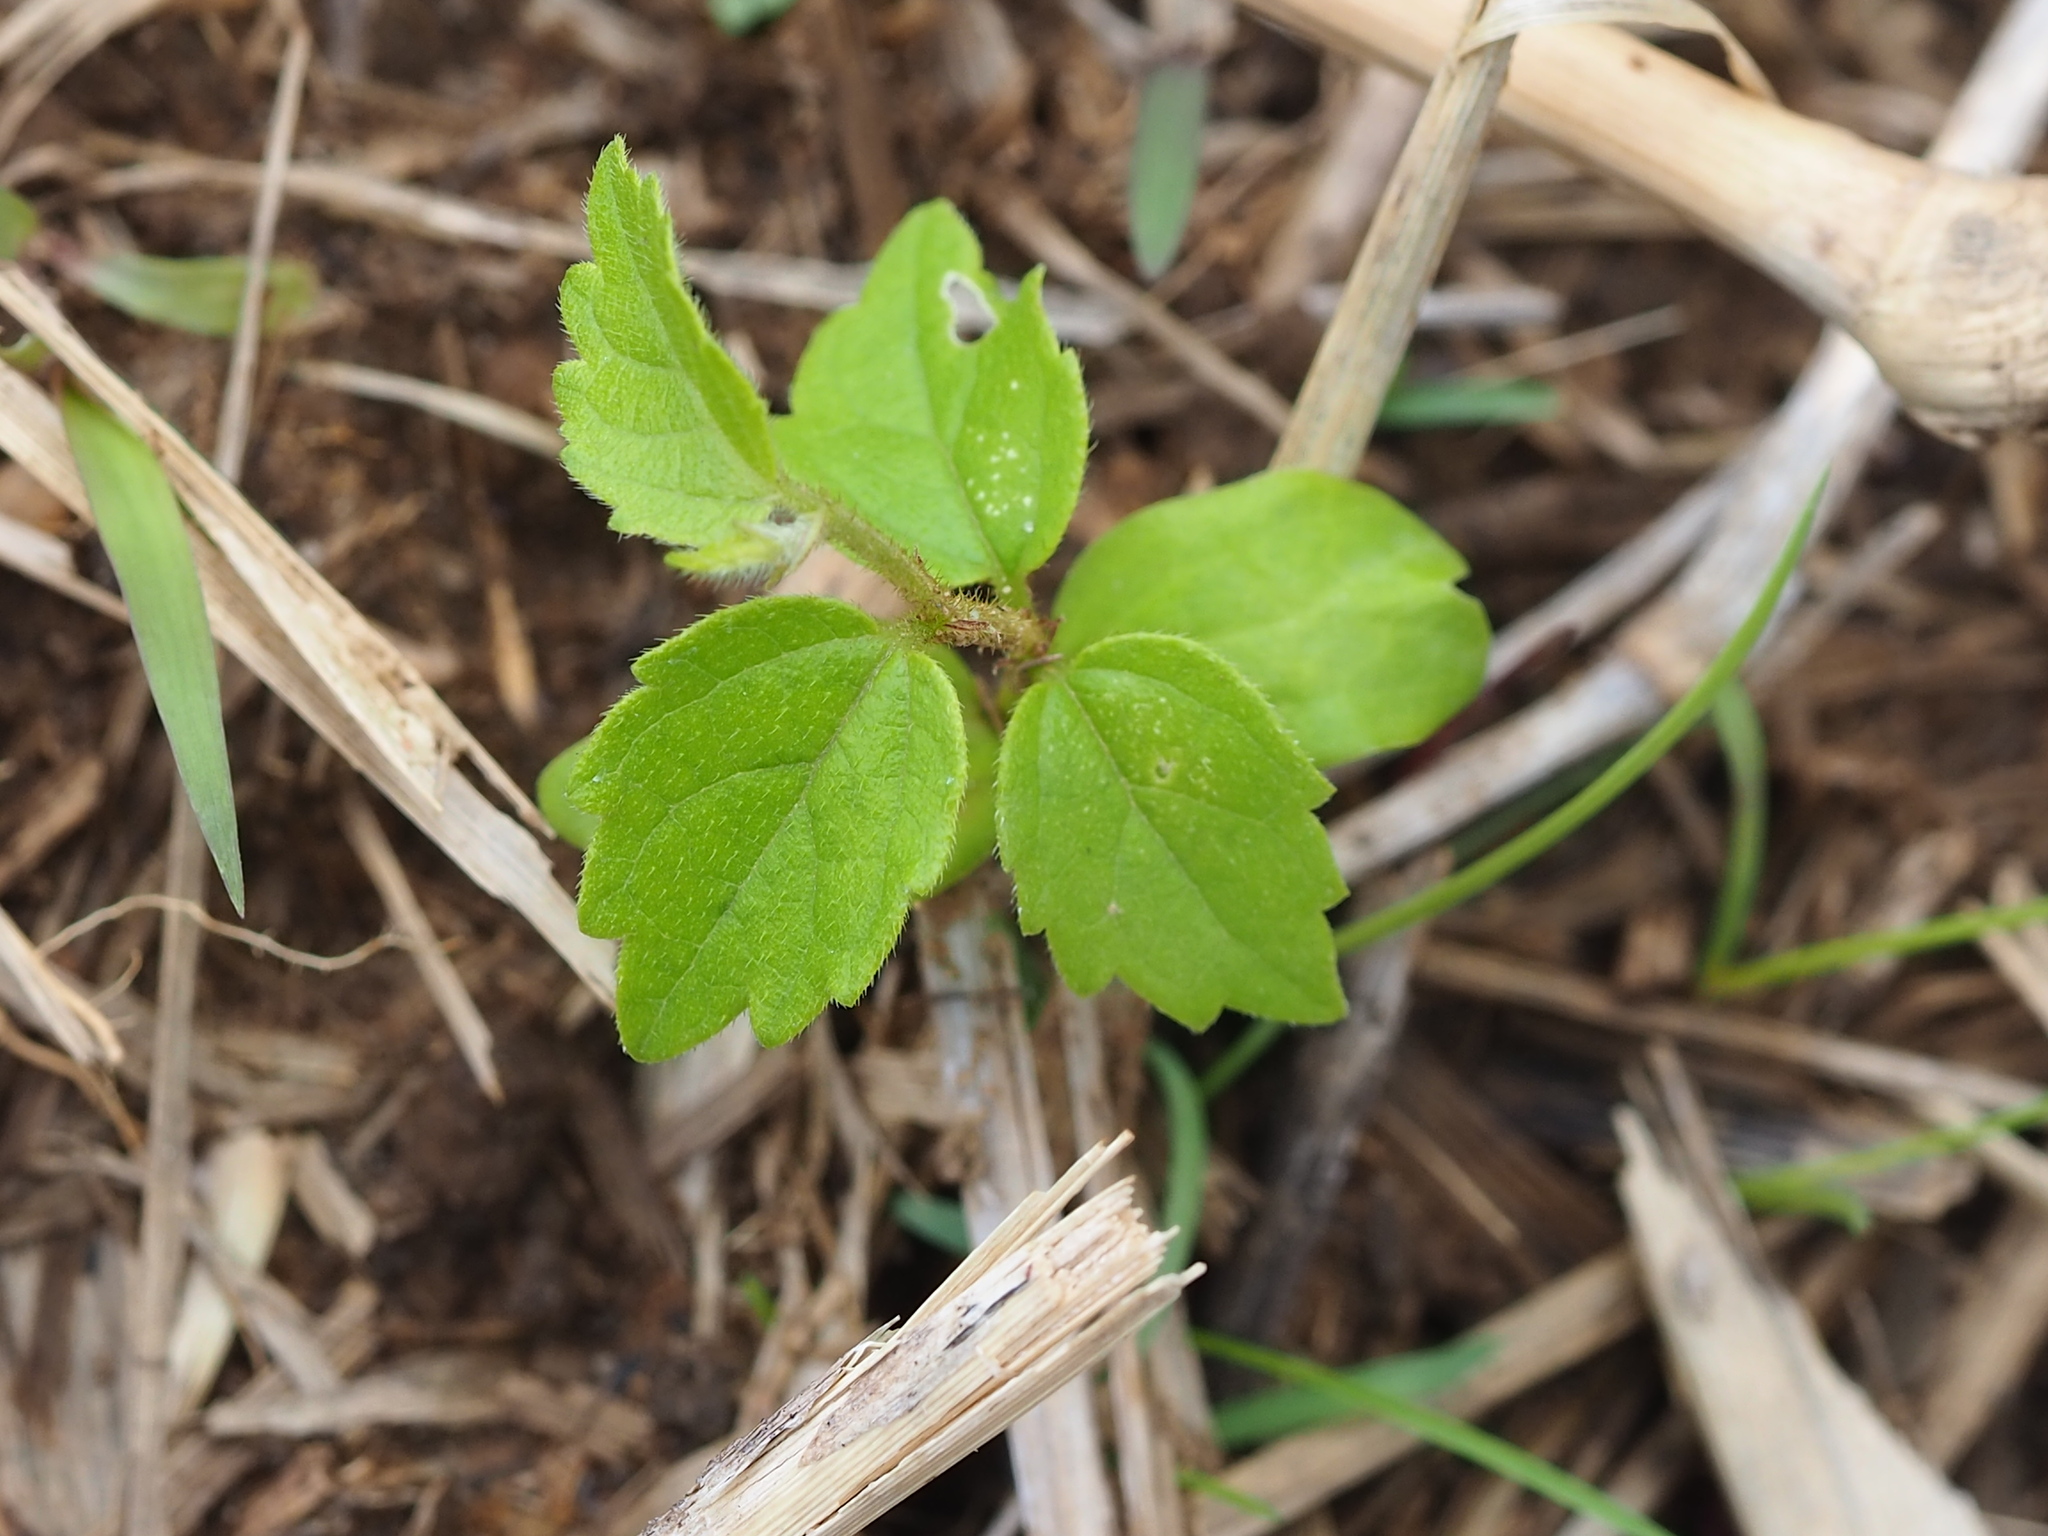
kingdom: Plantae
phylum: Tracheophyta
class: Magnoliopsida
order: Rosales
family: Cannabaceae
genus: Celtis
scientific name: Celtis sinensis
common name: Chinese hackberry
